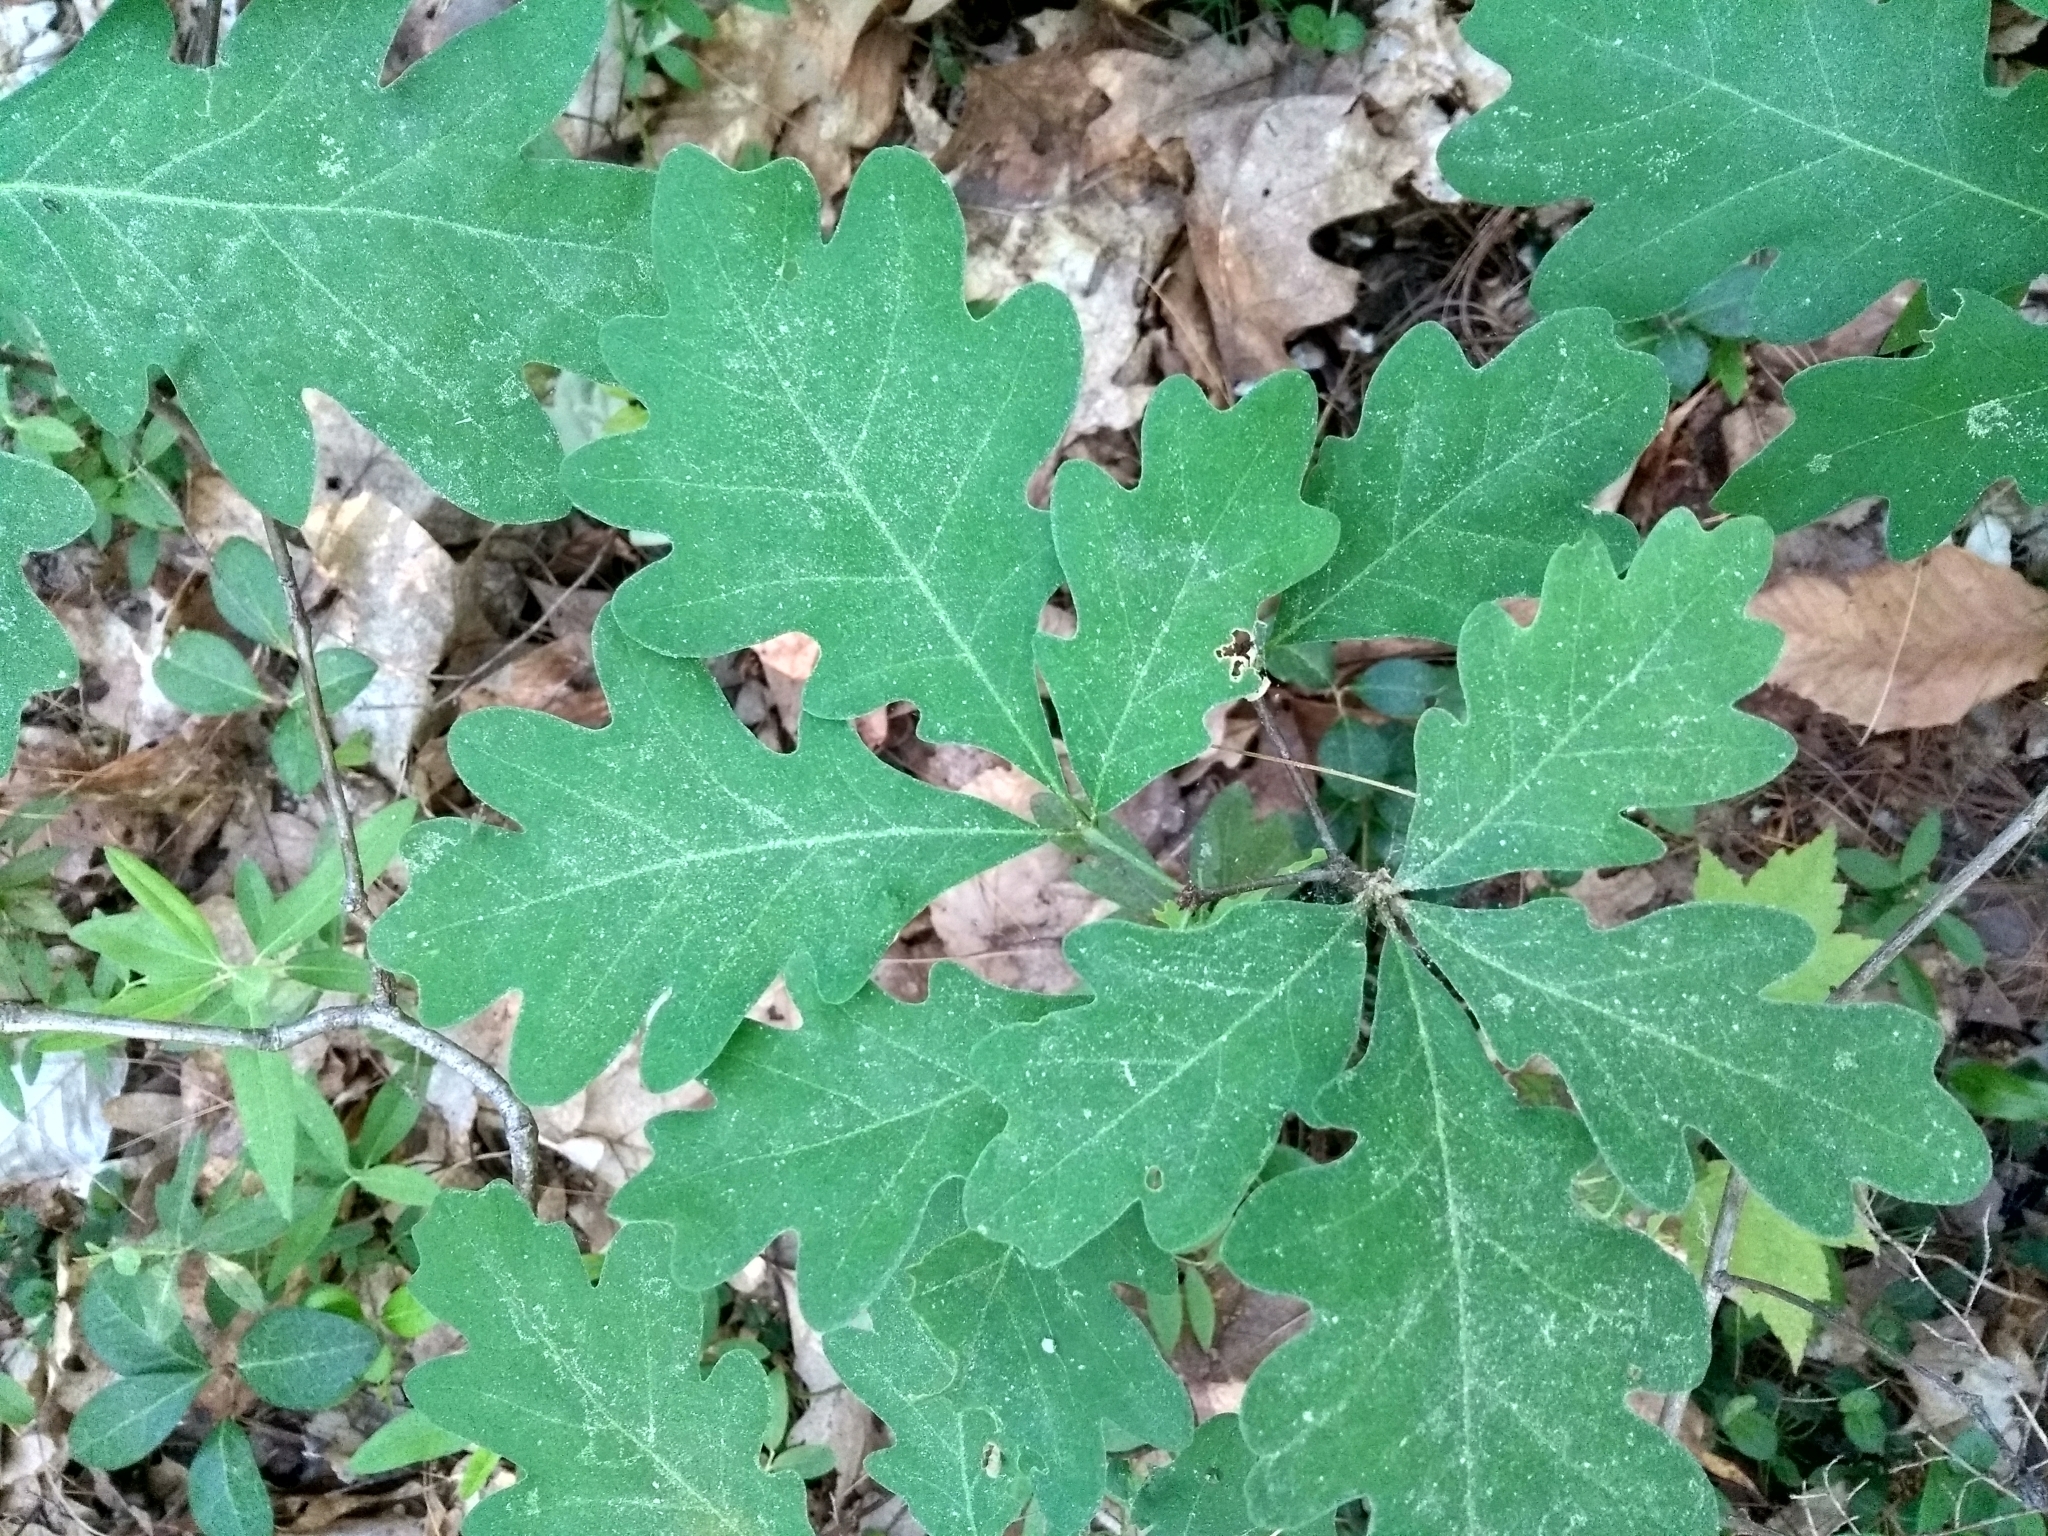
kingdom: Plantae
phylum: Tracheophyta
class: Magnoliopsida
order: Fagales
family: Fagaceae
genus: Quercus
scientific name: Quercus alba
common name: White oak
